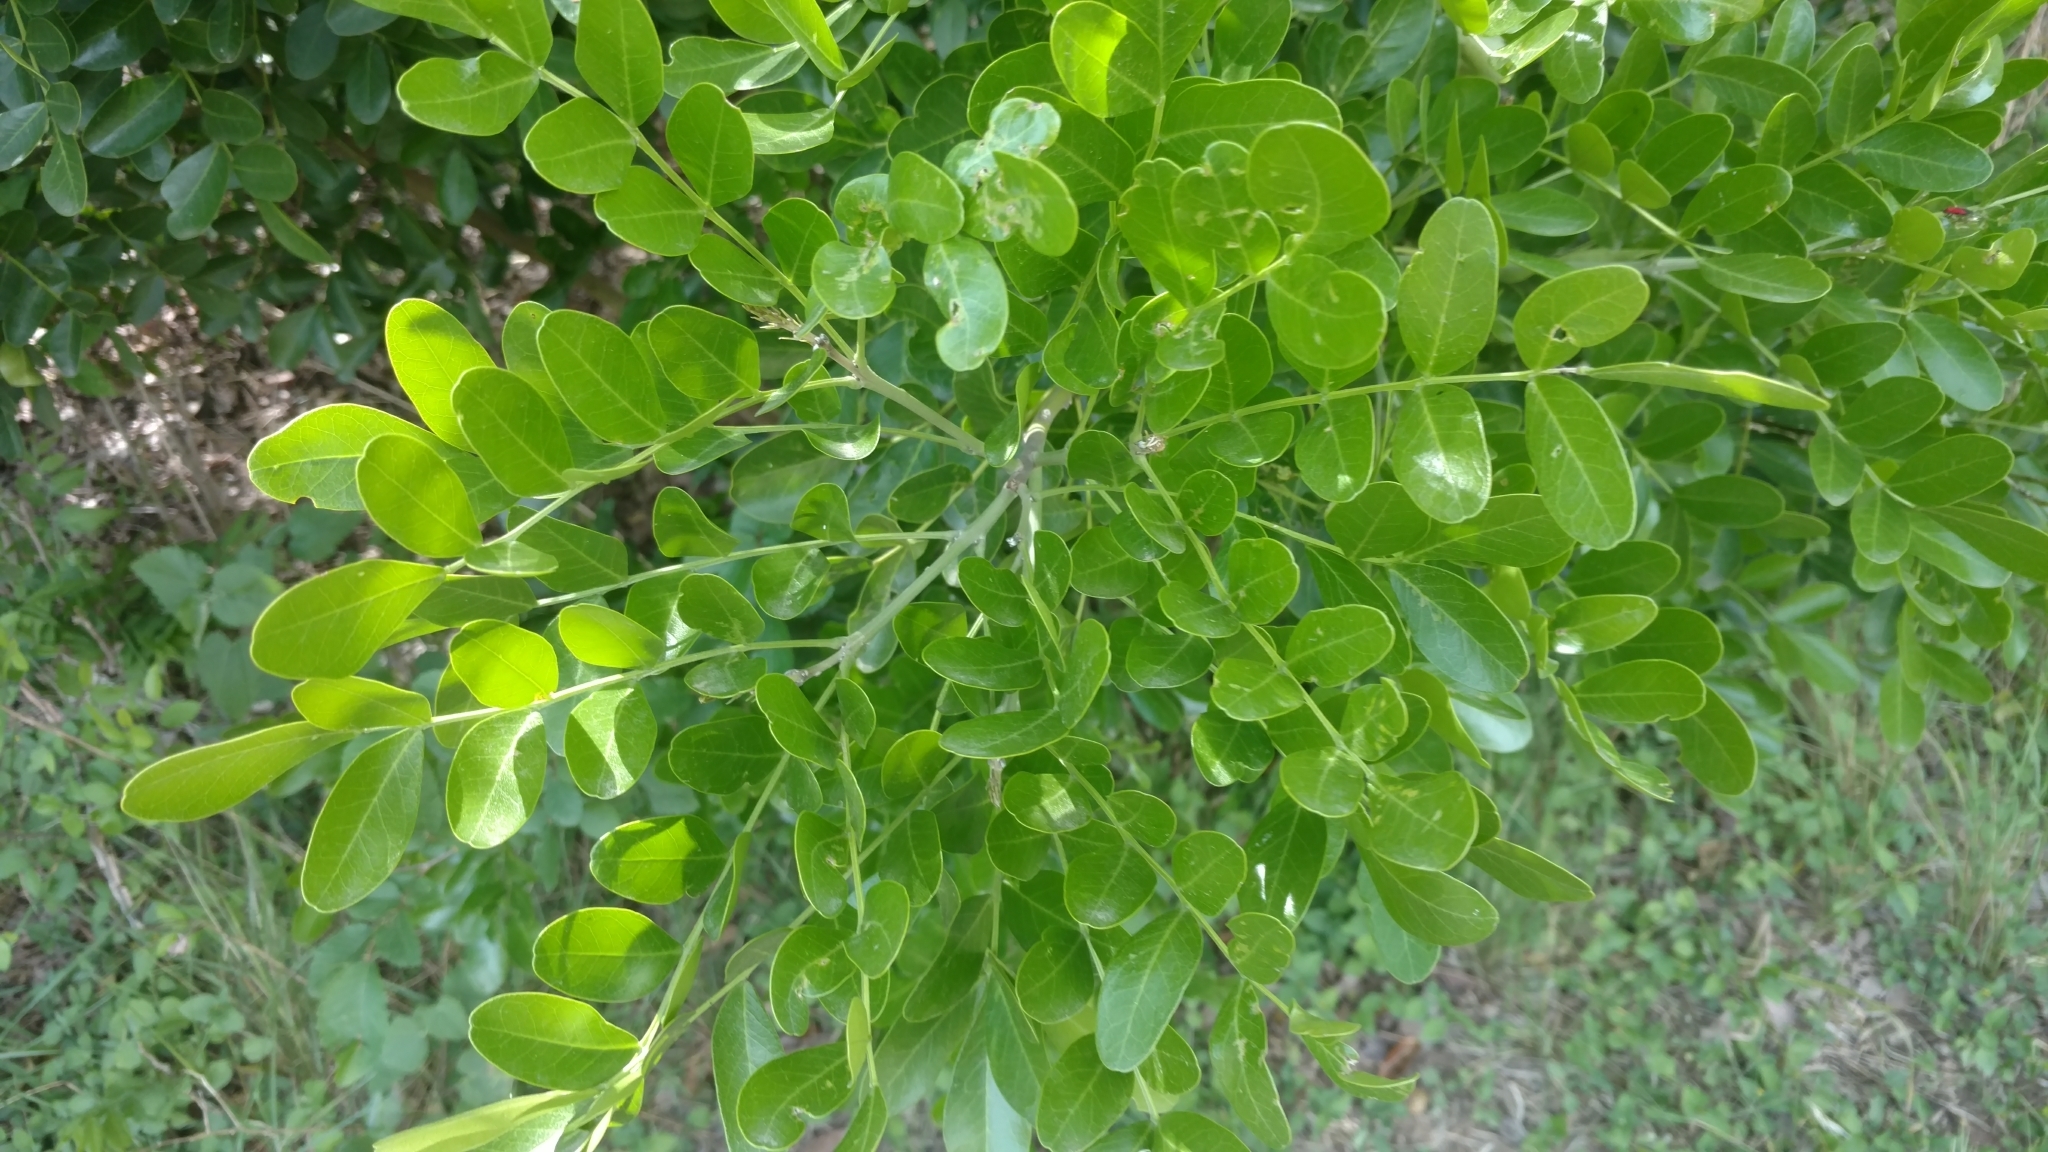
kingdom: Plantae
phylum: Tracheophyta
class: Magnoliopsida
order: Fabales
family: Fabaceae
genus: Dermatophyllum
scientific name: Dermatophyllum secundiflorum
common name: Texas-mountain-laurel
